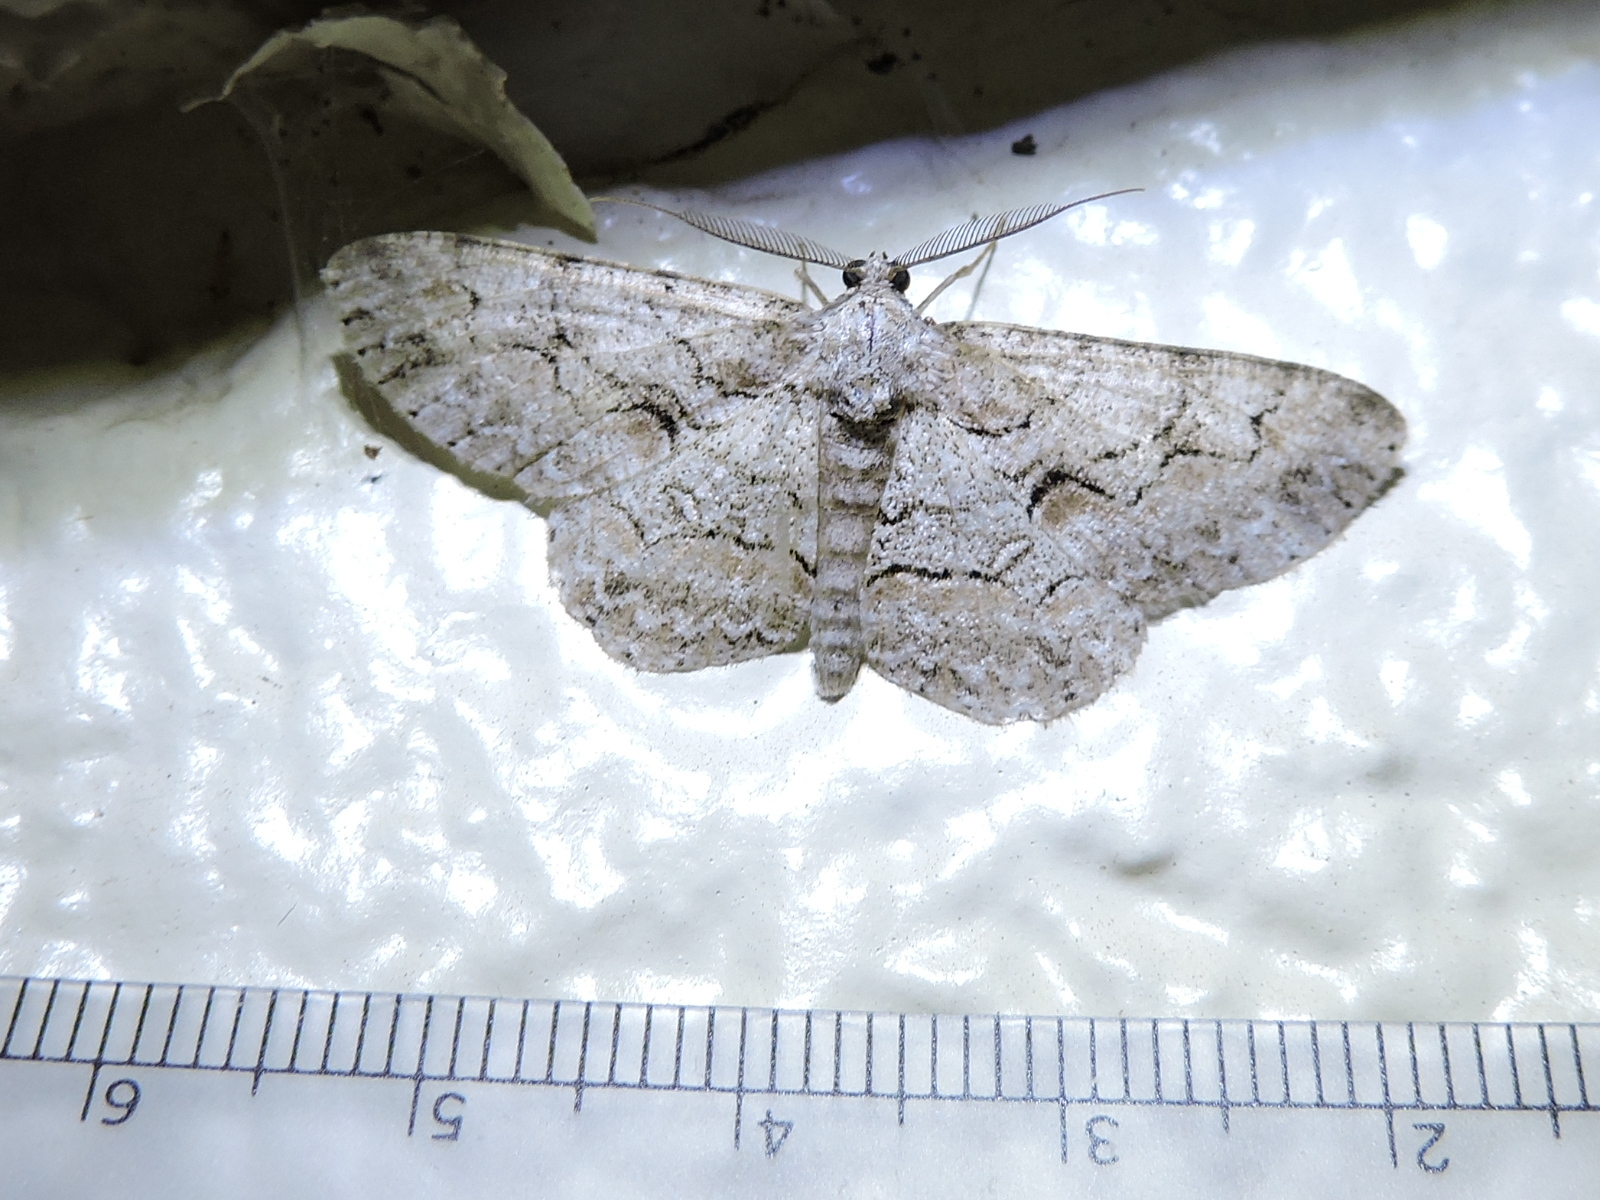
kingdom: Animalia
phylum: Arthropoda
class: Insecta
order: Lepidoptera
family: Geometridae
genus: Iridopsis
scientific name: Iridopsis defectaria
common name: Brown-shaded gray
